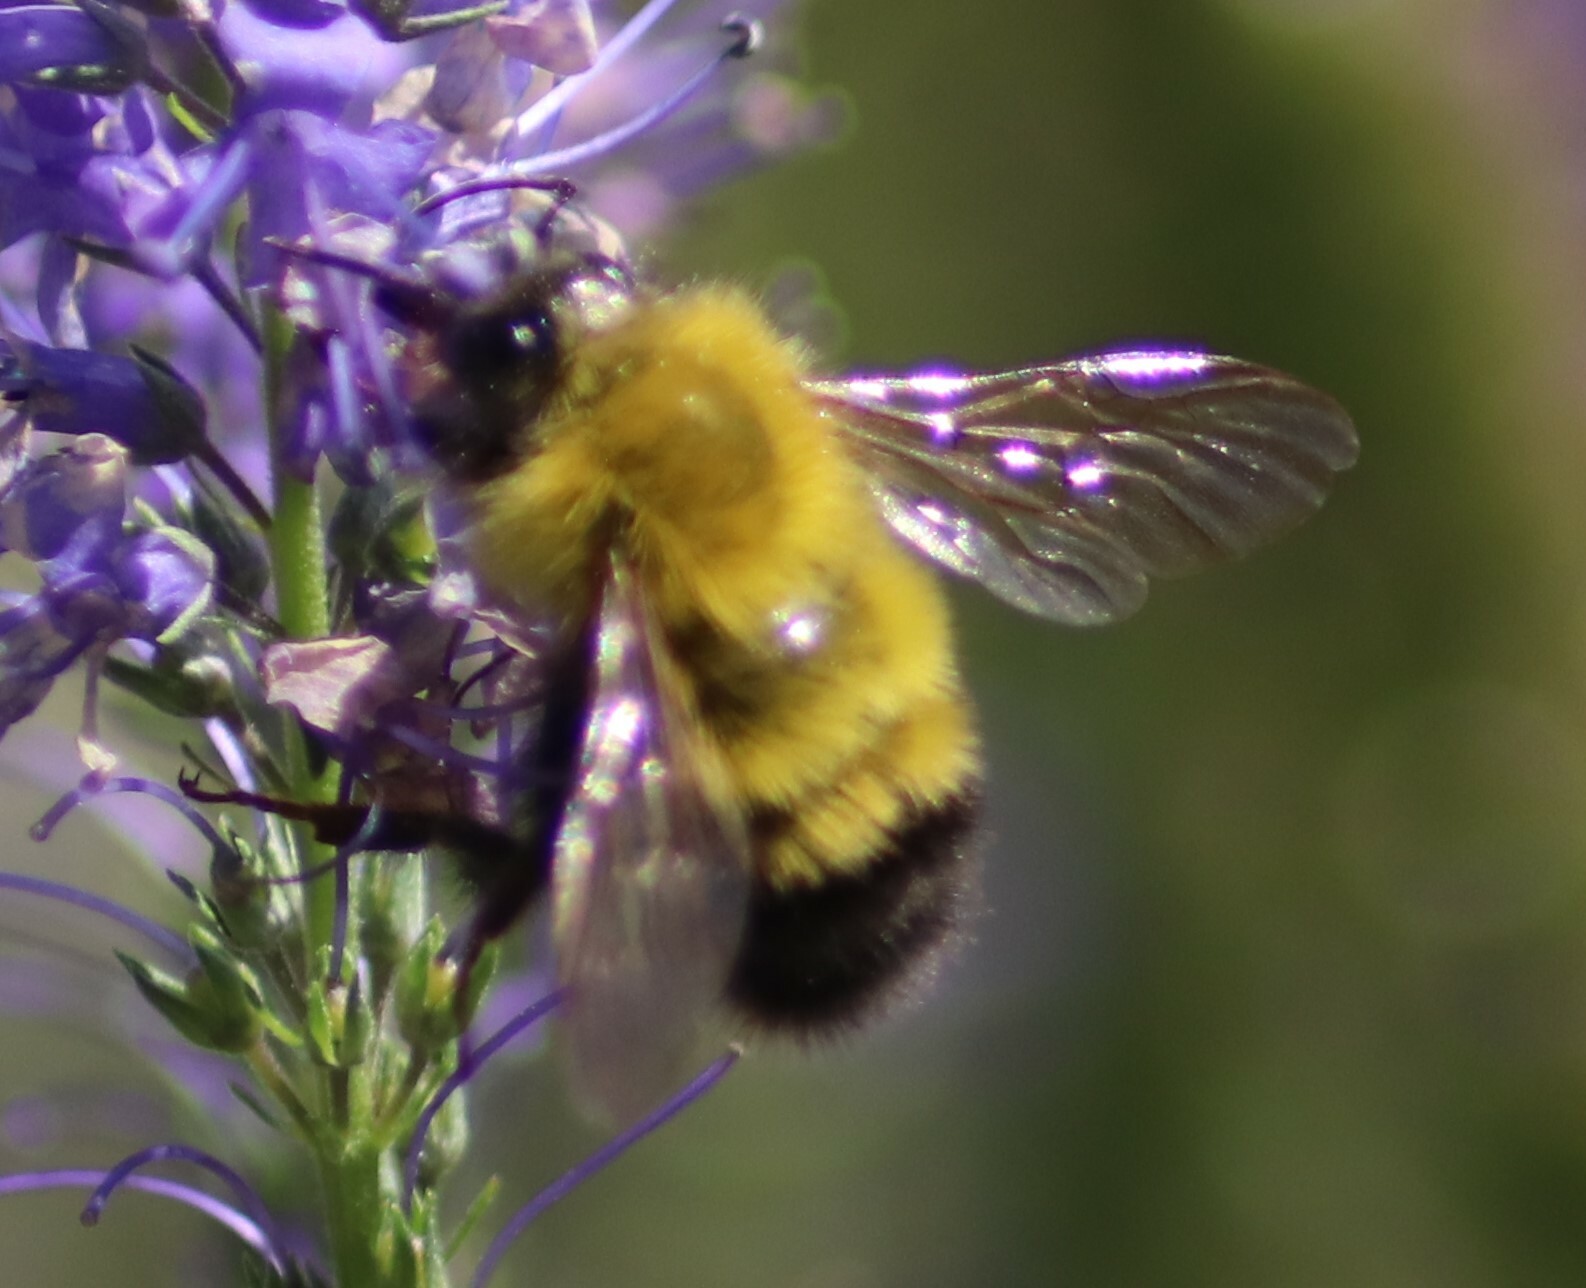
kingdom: Animalia
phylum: Arthropoda
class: Insecta
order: Hymenoptera
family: Apidae
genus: Bombus
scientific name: Bombus perplexus
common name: Confusing bumble bee
